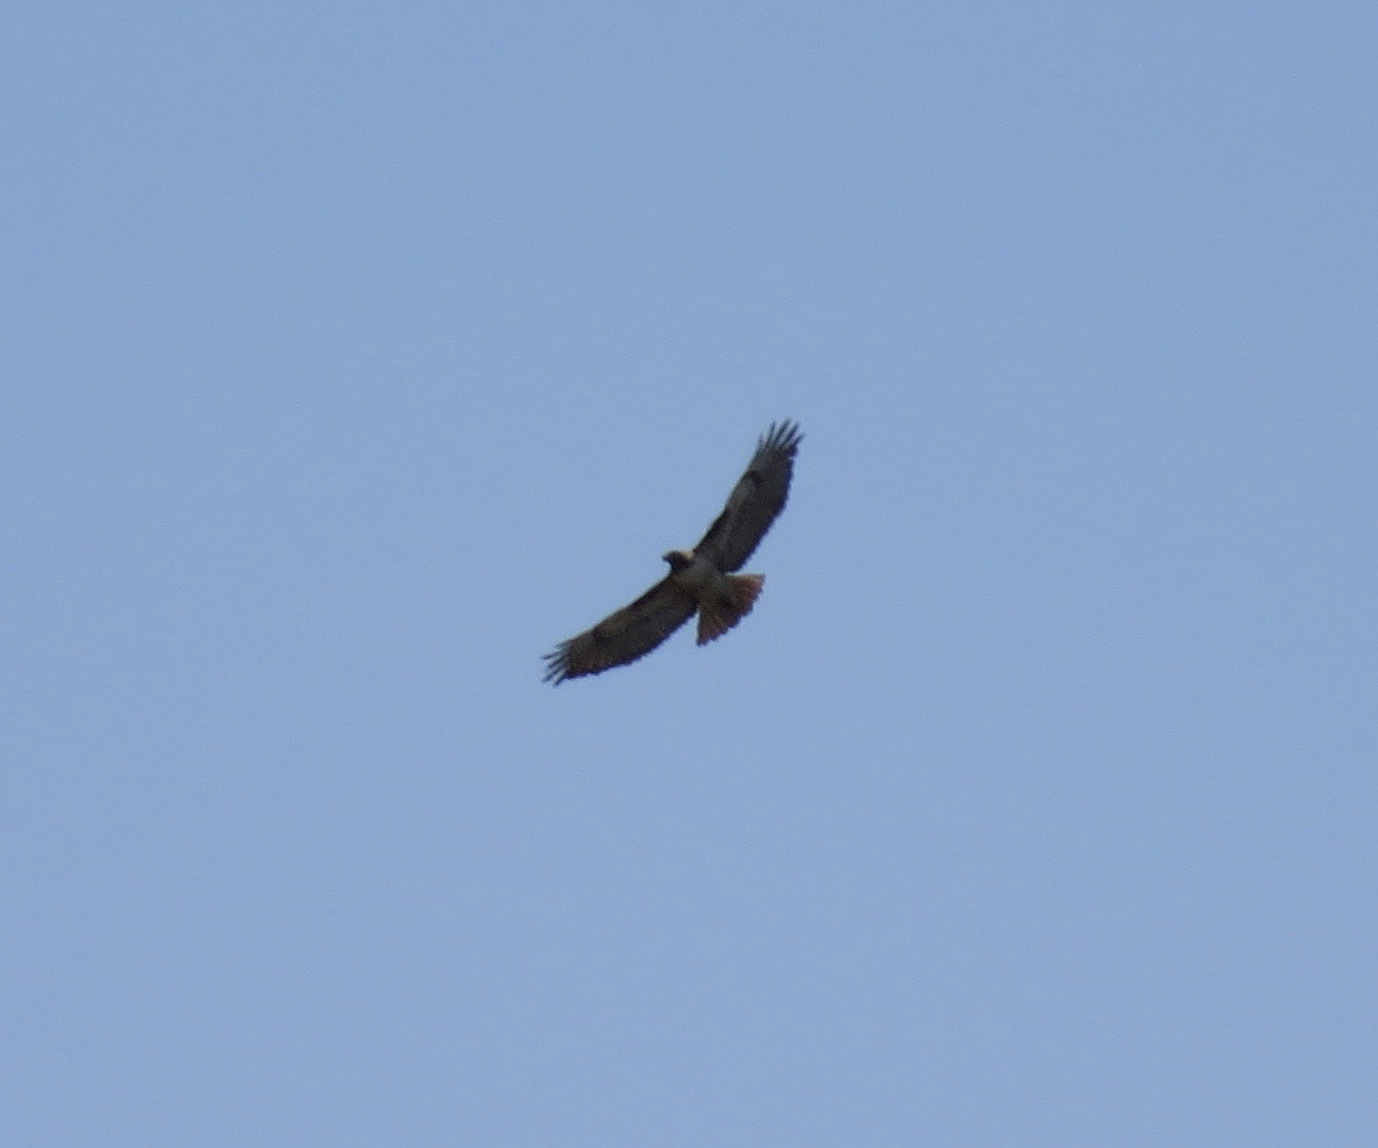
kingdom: Animalia
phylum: Chordata
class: Aves
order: Accipitriformes
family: Accipitridae
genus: Buteo
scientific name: Buteo jamaicensis
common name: Red-tailed hawk
